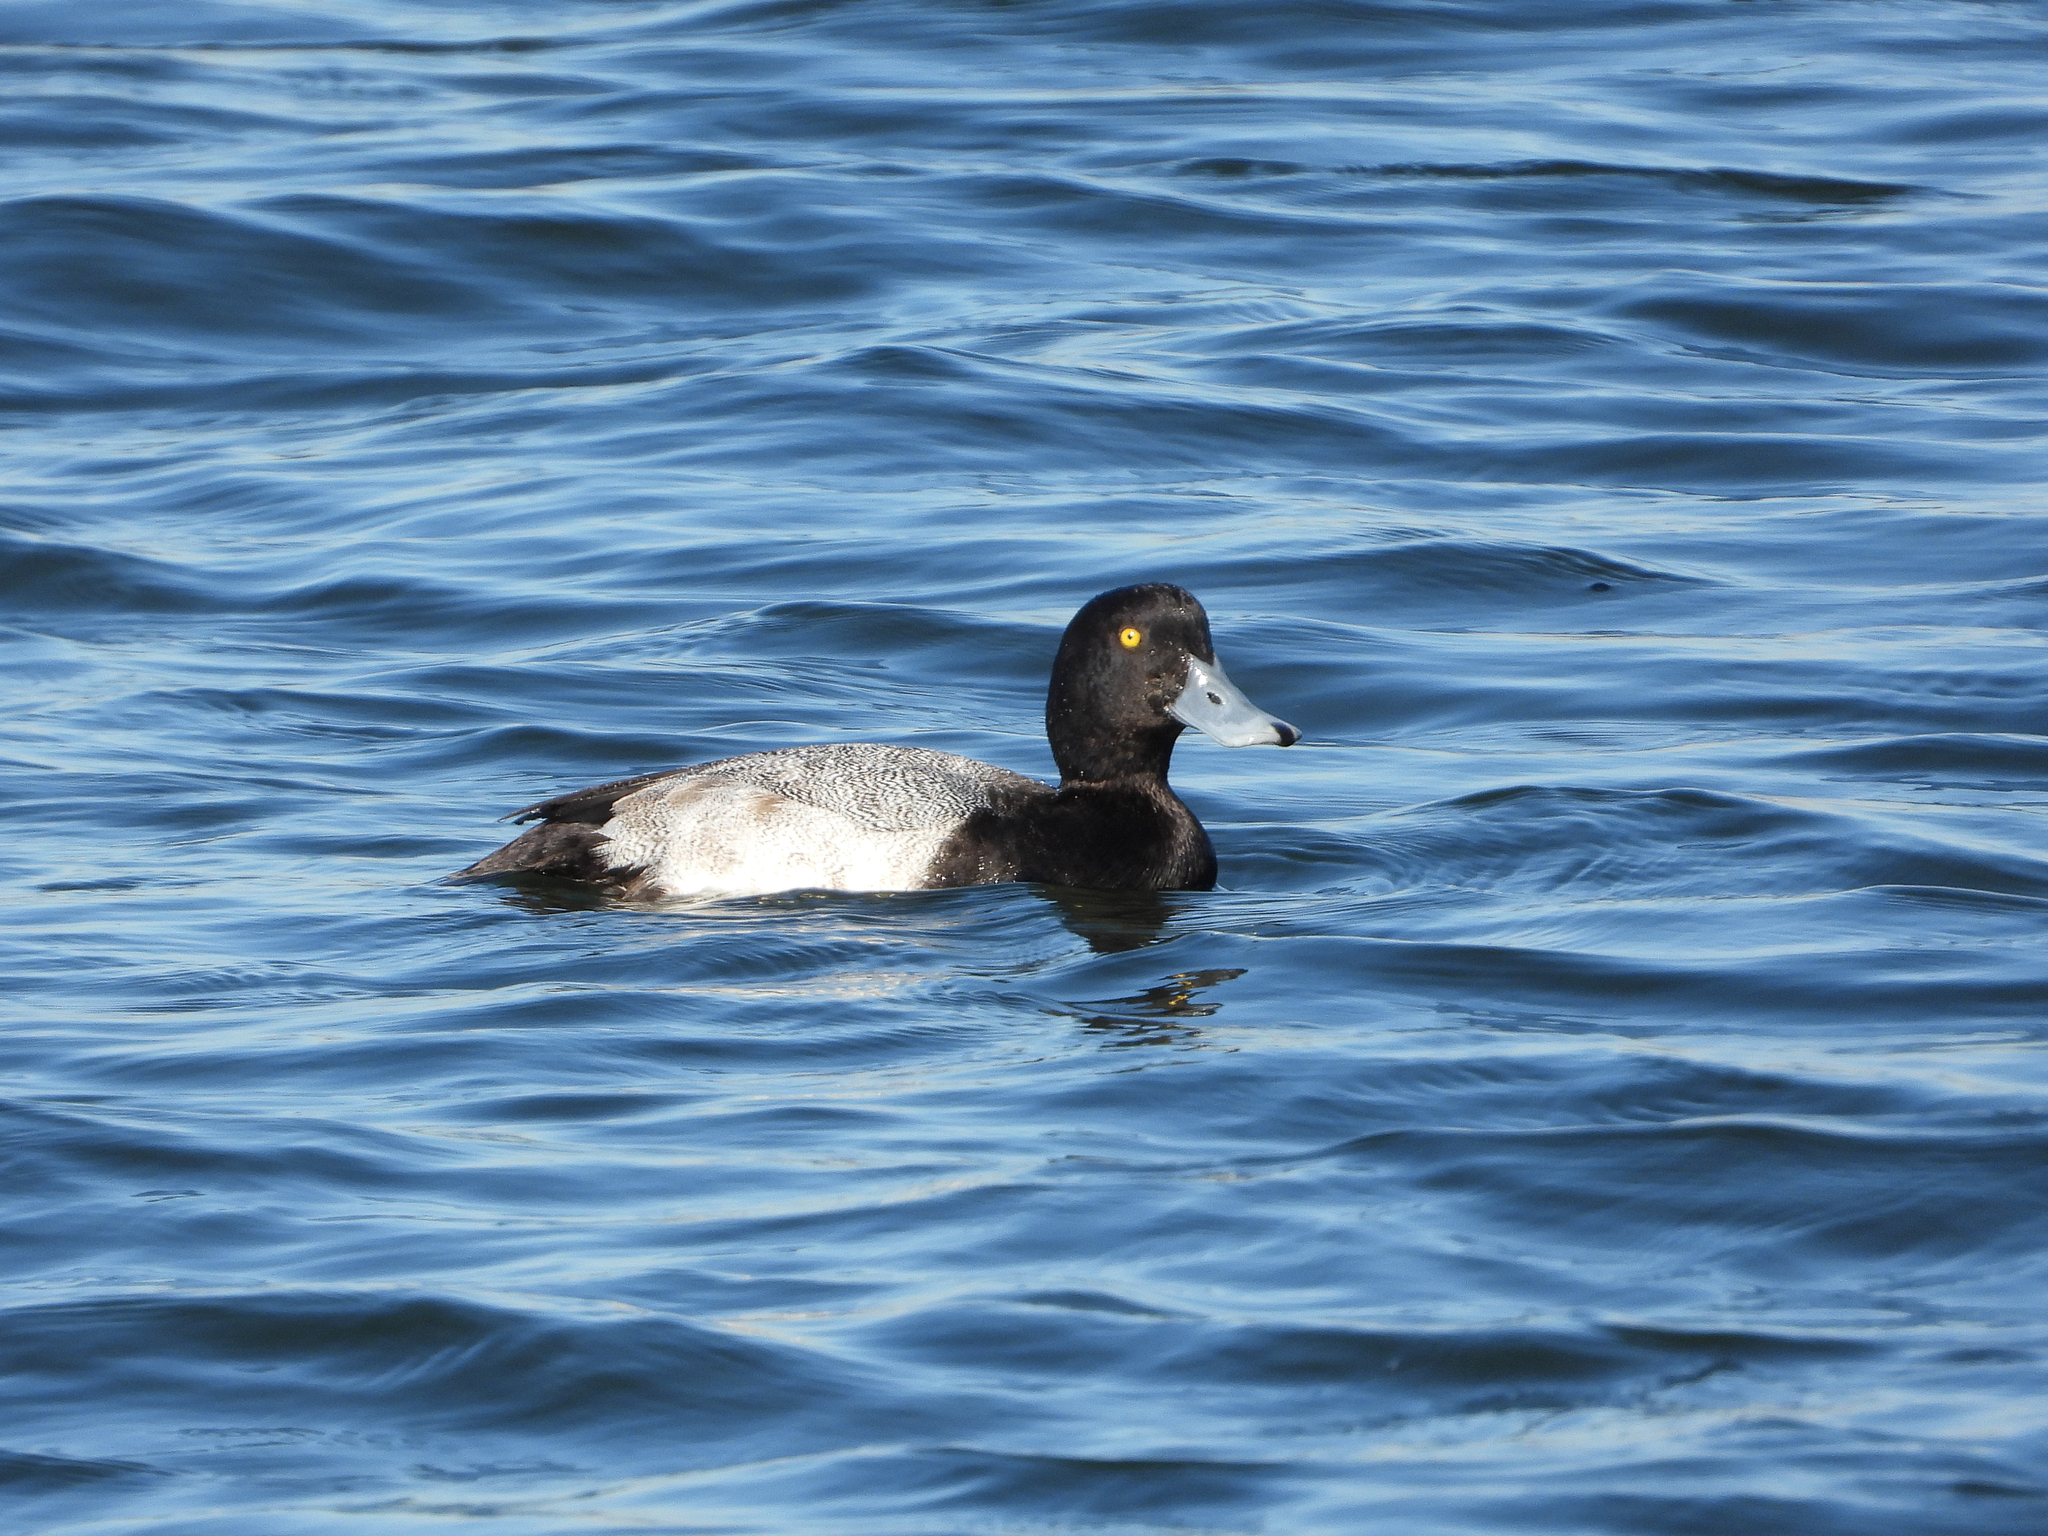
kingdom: Animalia
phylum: Chordata
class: Aves
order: Anseriformes
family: Anatidae
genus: Aythya
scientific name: Aythya marila
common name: Greater scaup
